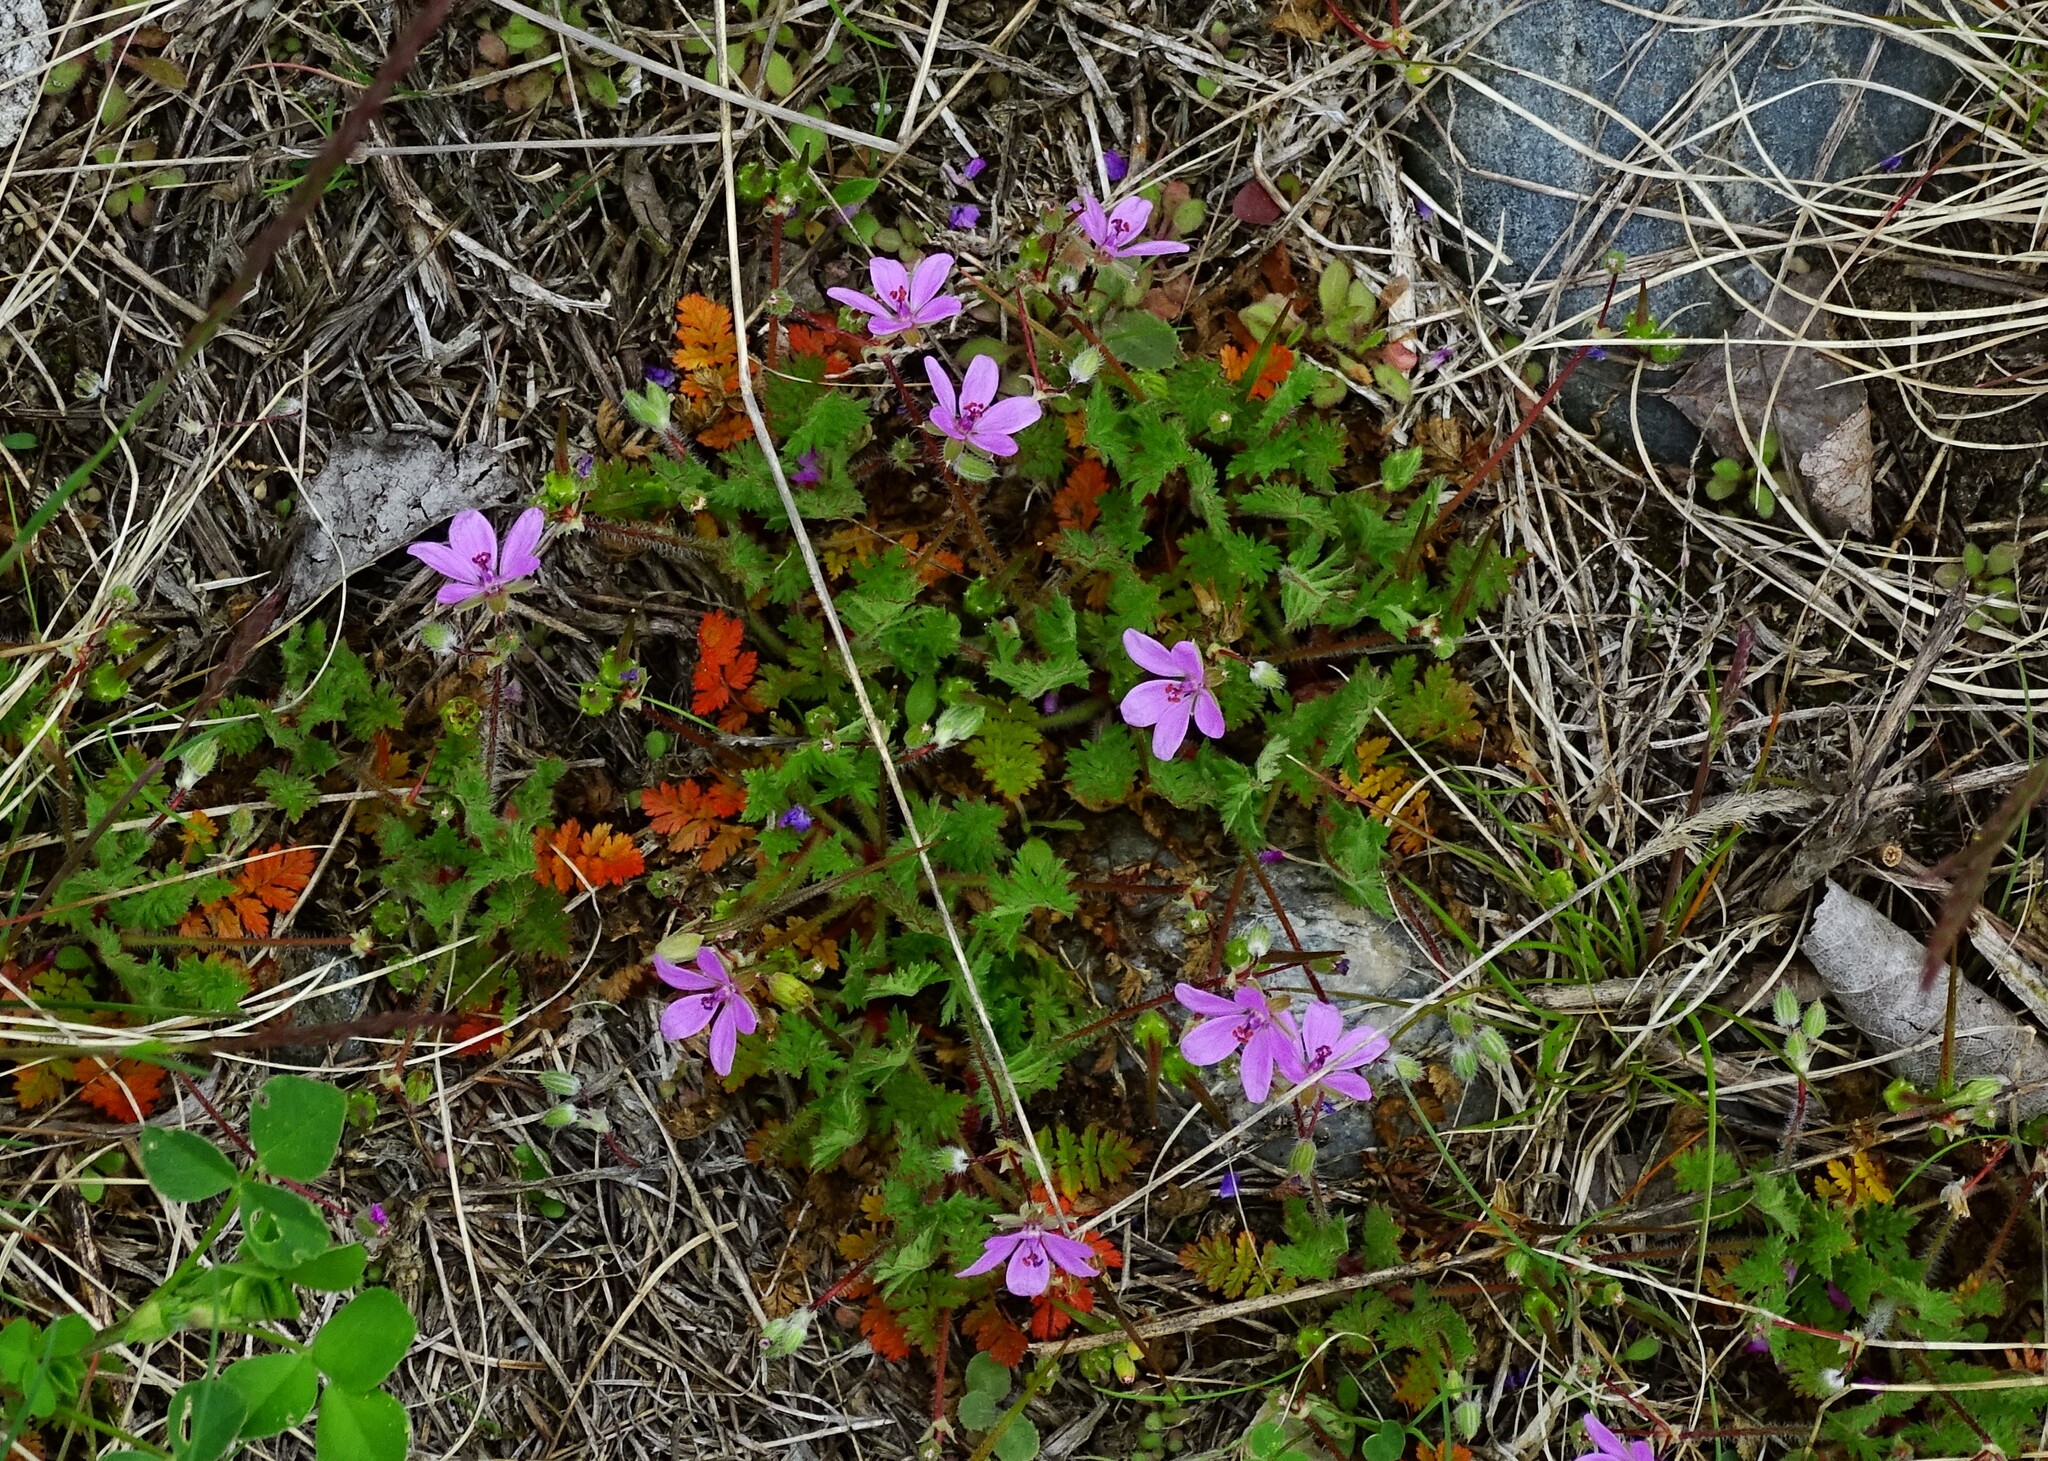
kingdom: Plantae
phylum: Tracheophyta
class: Magnoliopsida
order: Geraniales
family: Geraniaceae
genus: Erodium
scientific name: Erodium cicutarium
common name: Common stork's-bill
